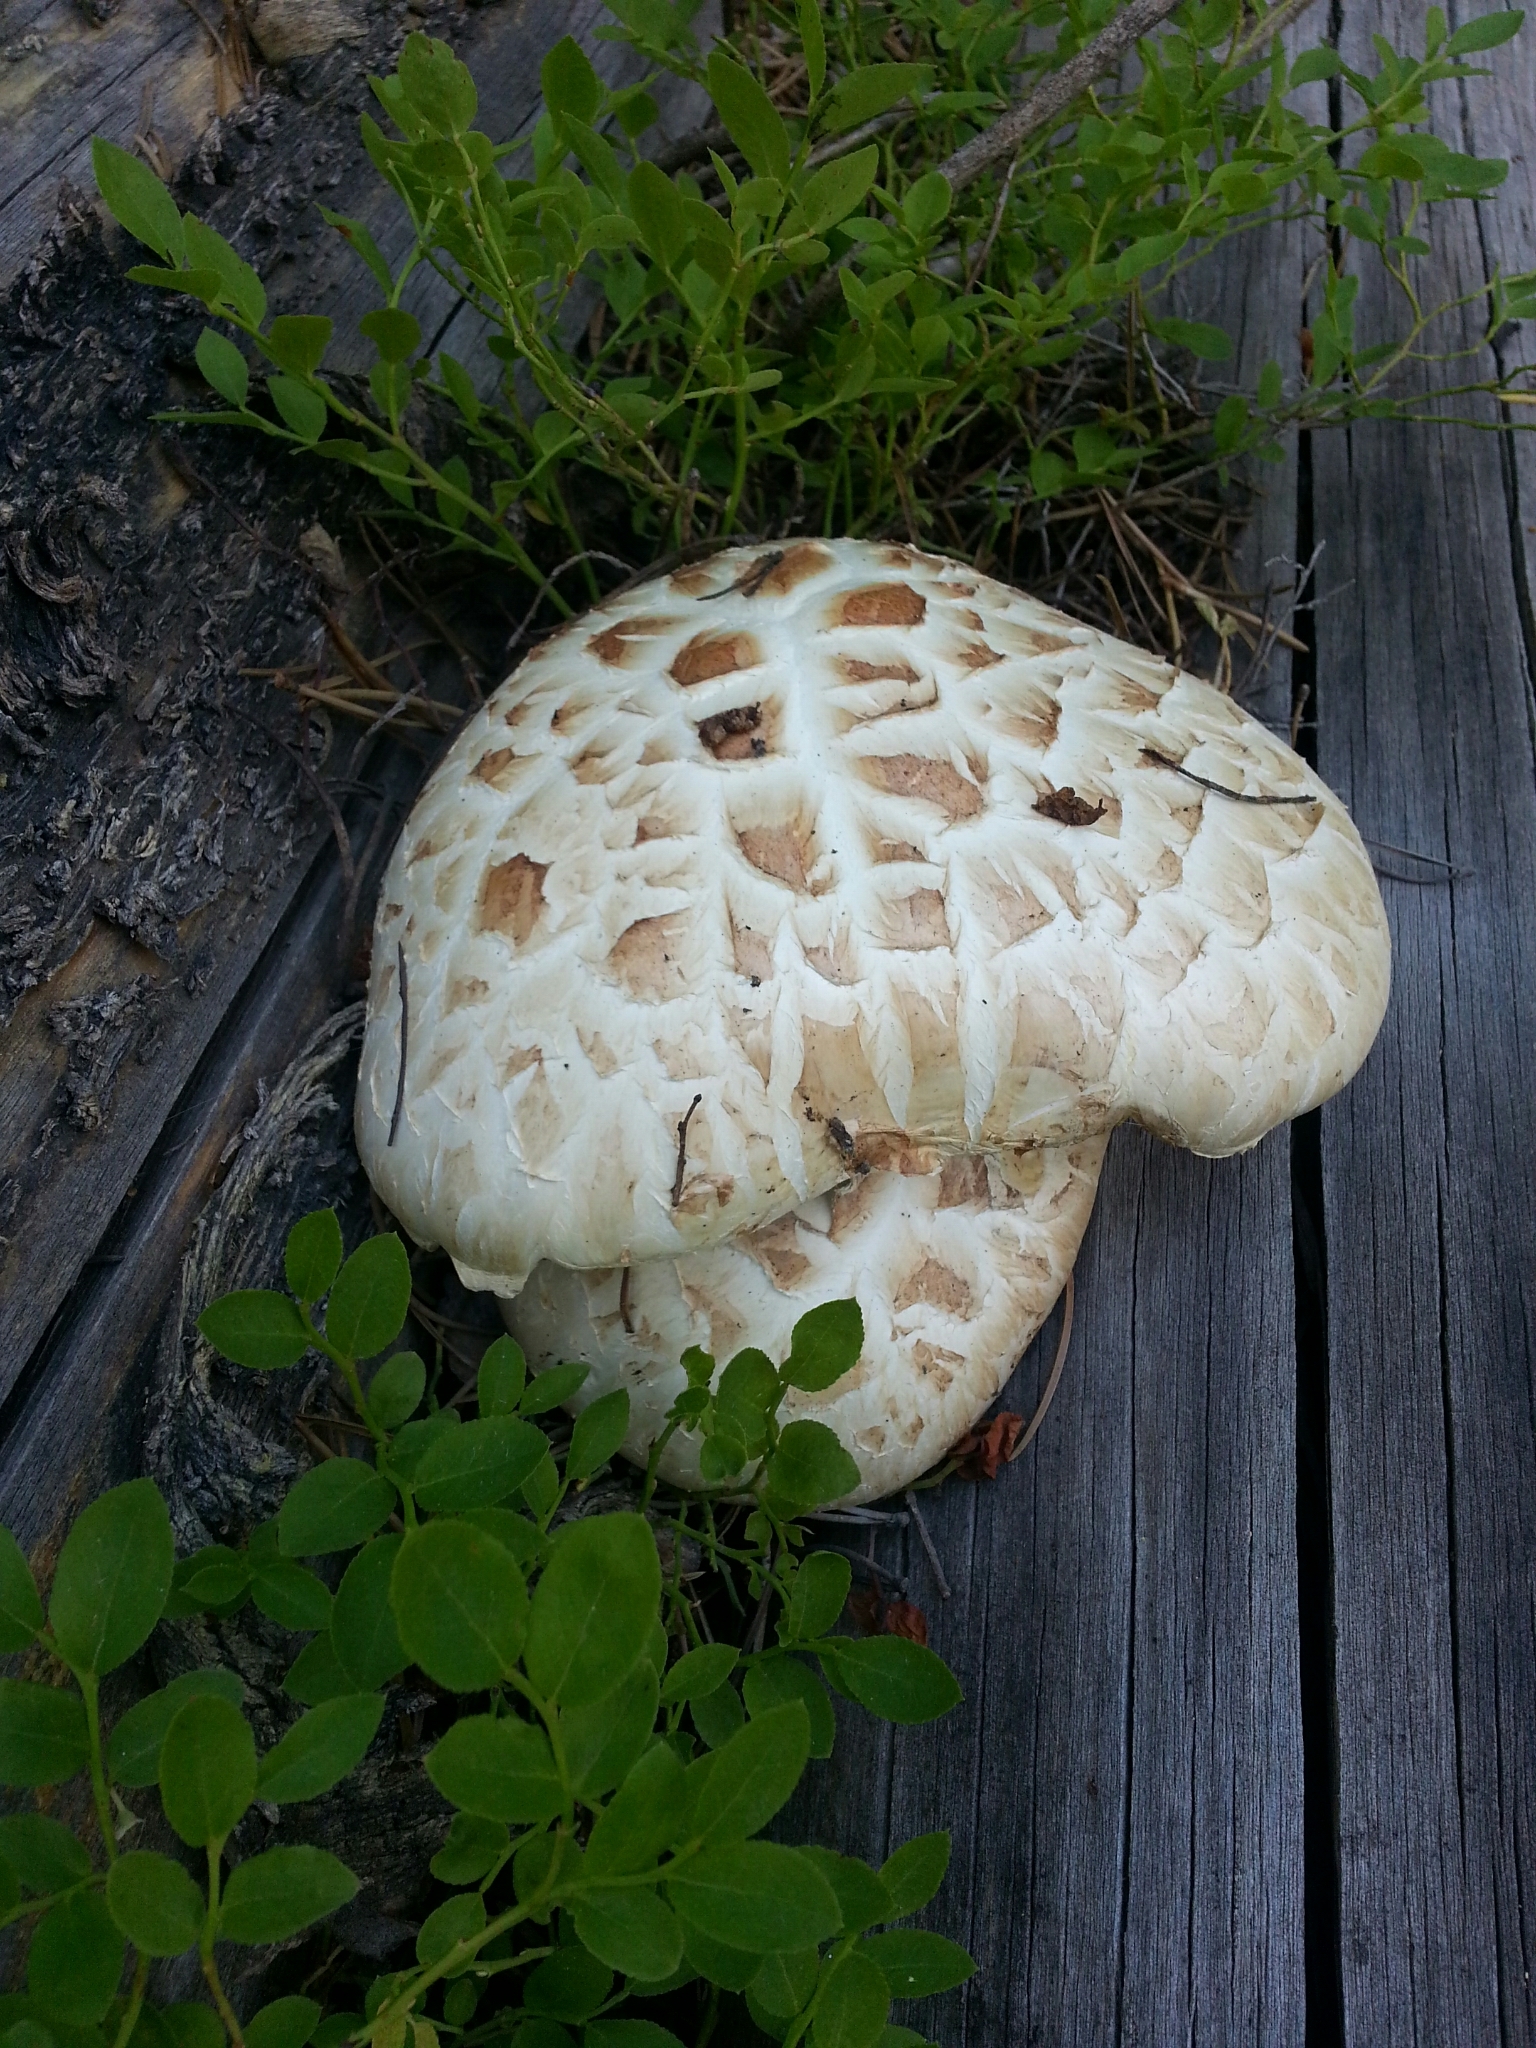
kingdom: Fungi
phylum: Basidiomycota
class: Agaricomycetes
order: Gloeophyllales
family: Gloeophyllaceae
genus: Neolentinus
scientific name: Neolentinus ponderosus
